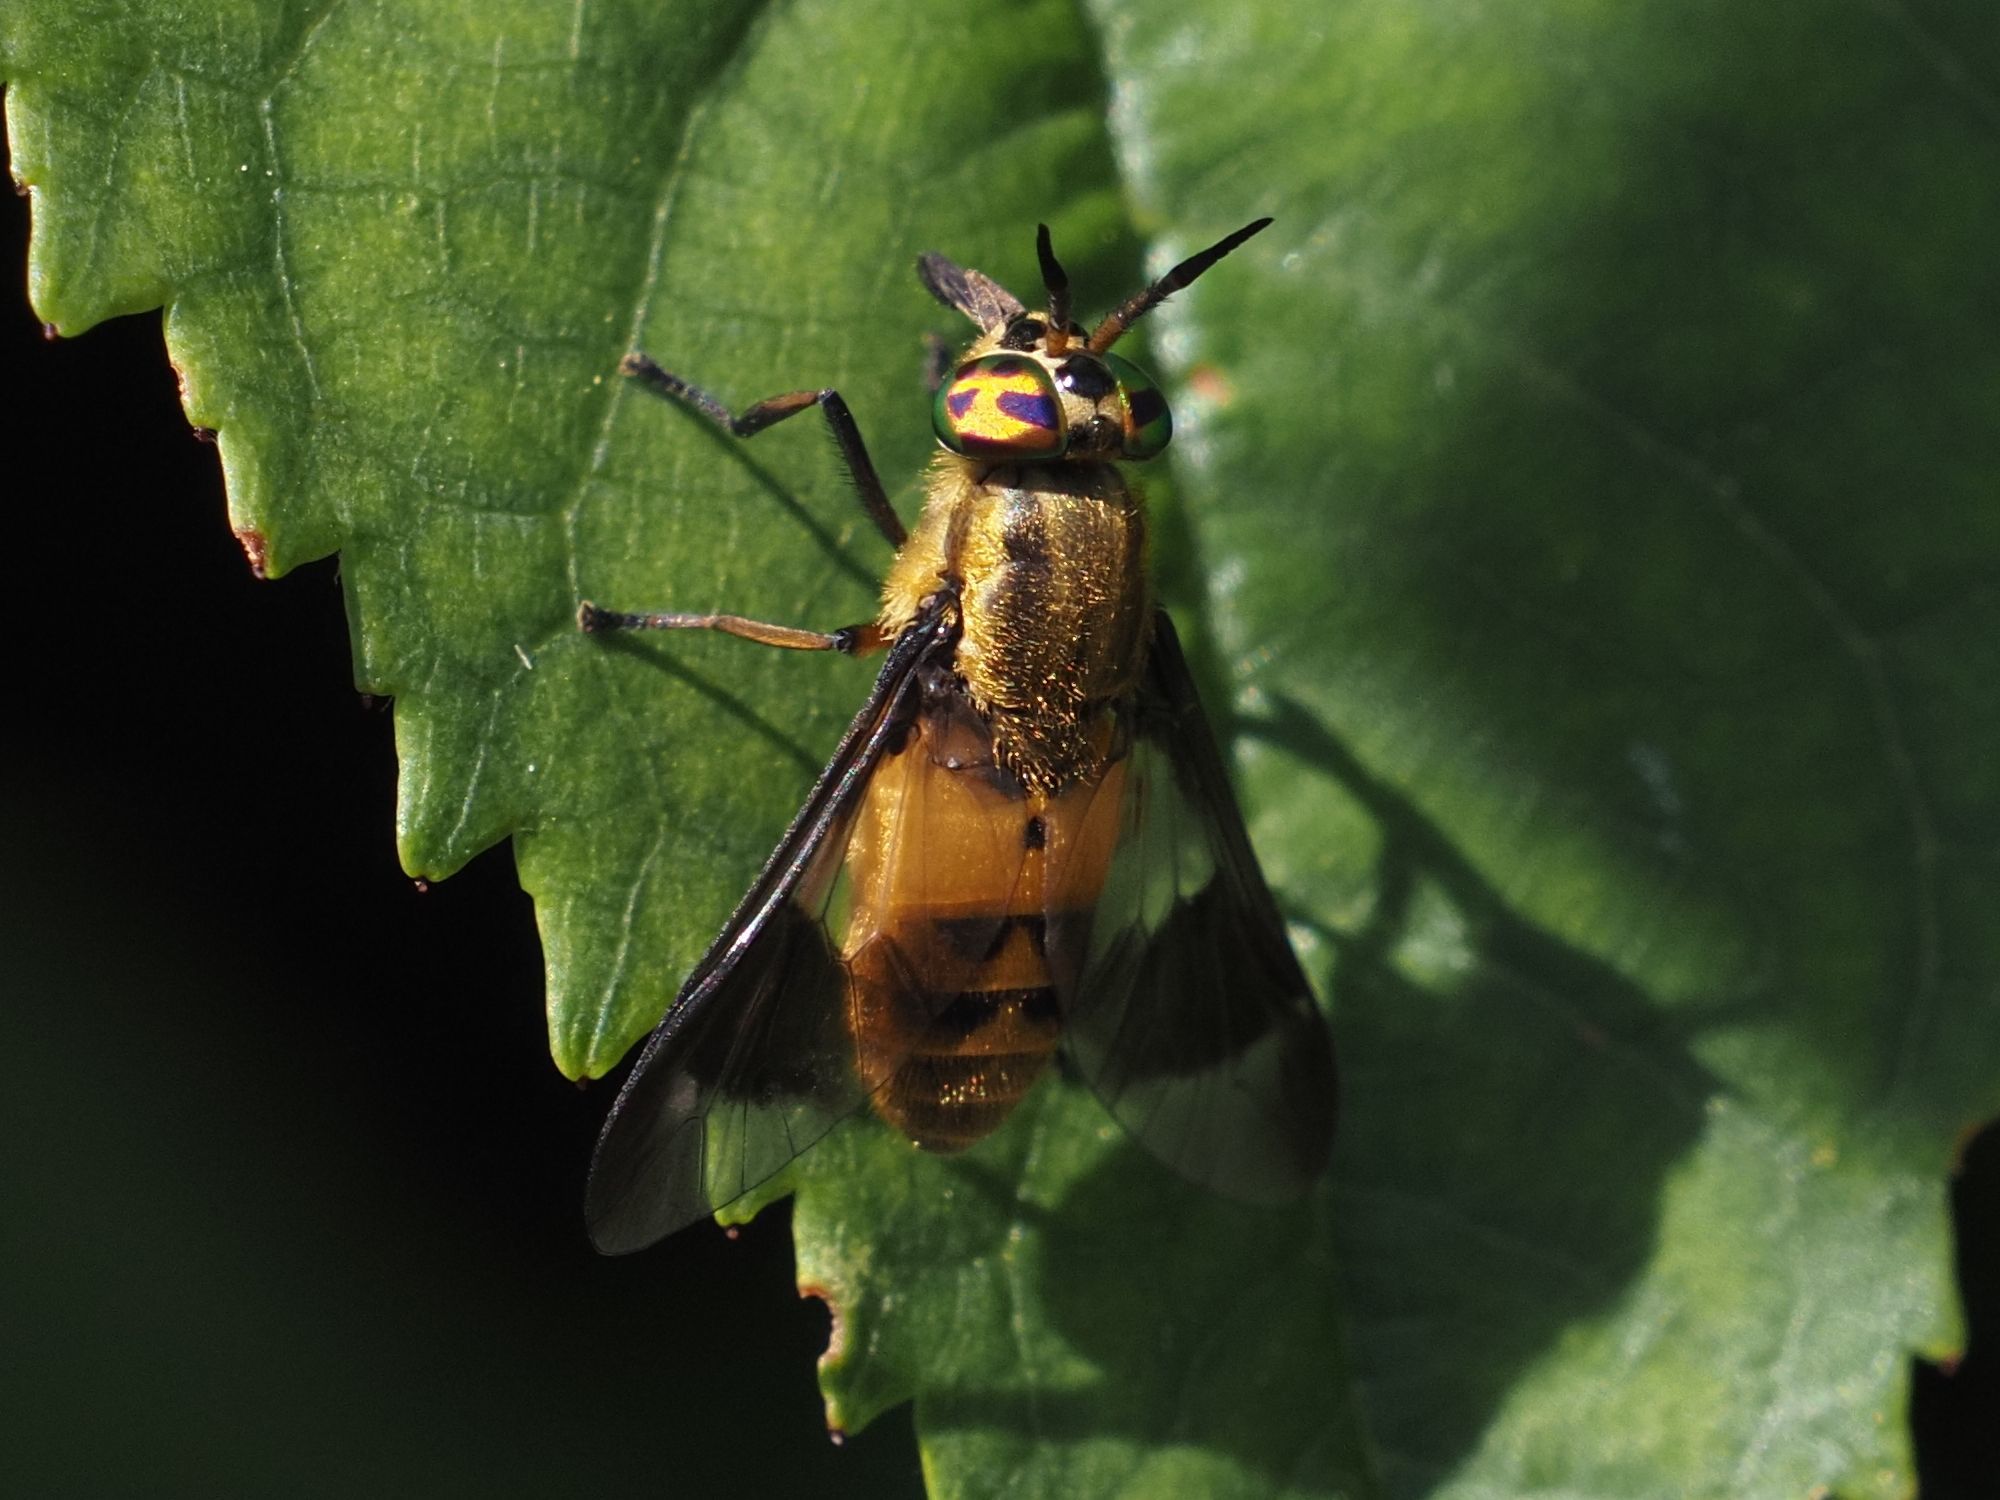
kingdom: Animalia
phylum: Arthropoda
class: Insecta
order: Diptera
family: Tabanidae
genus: Chrysops
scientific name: Chrysops viduatus
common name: Square-spot deerfly
